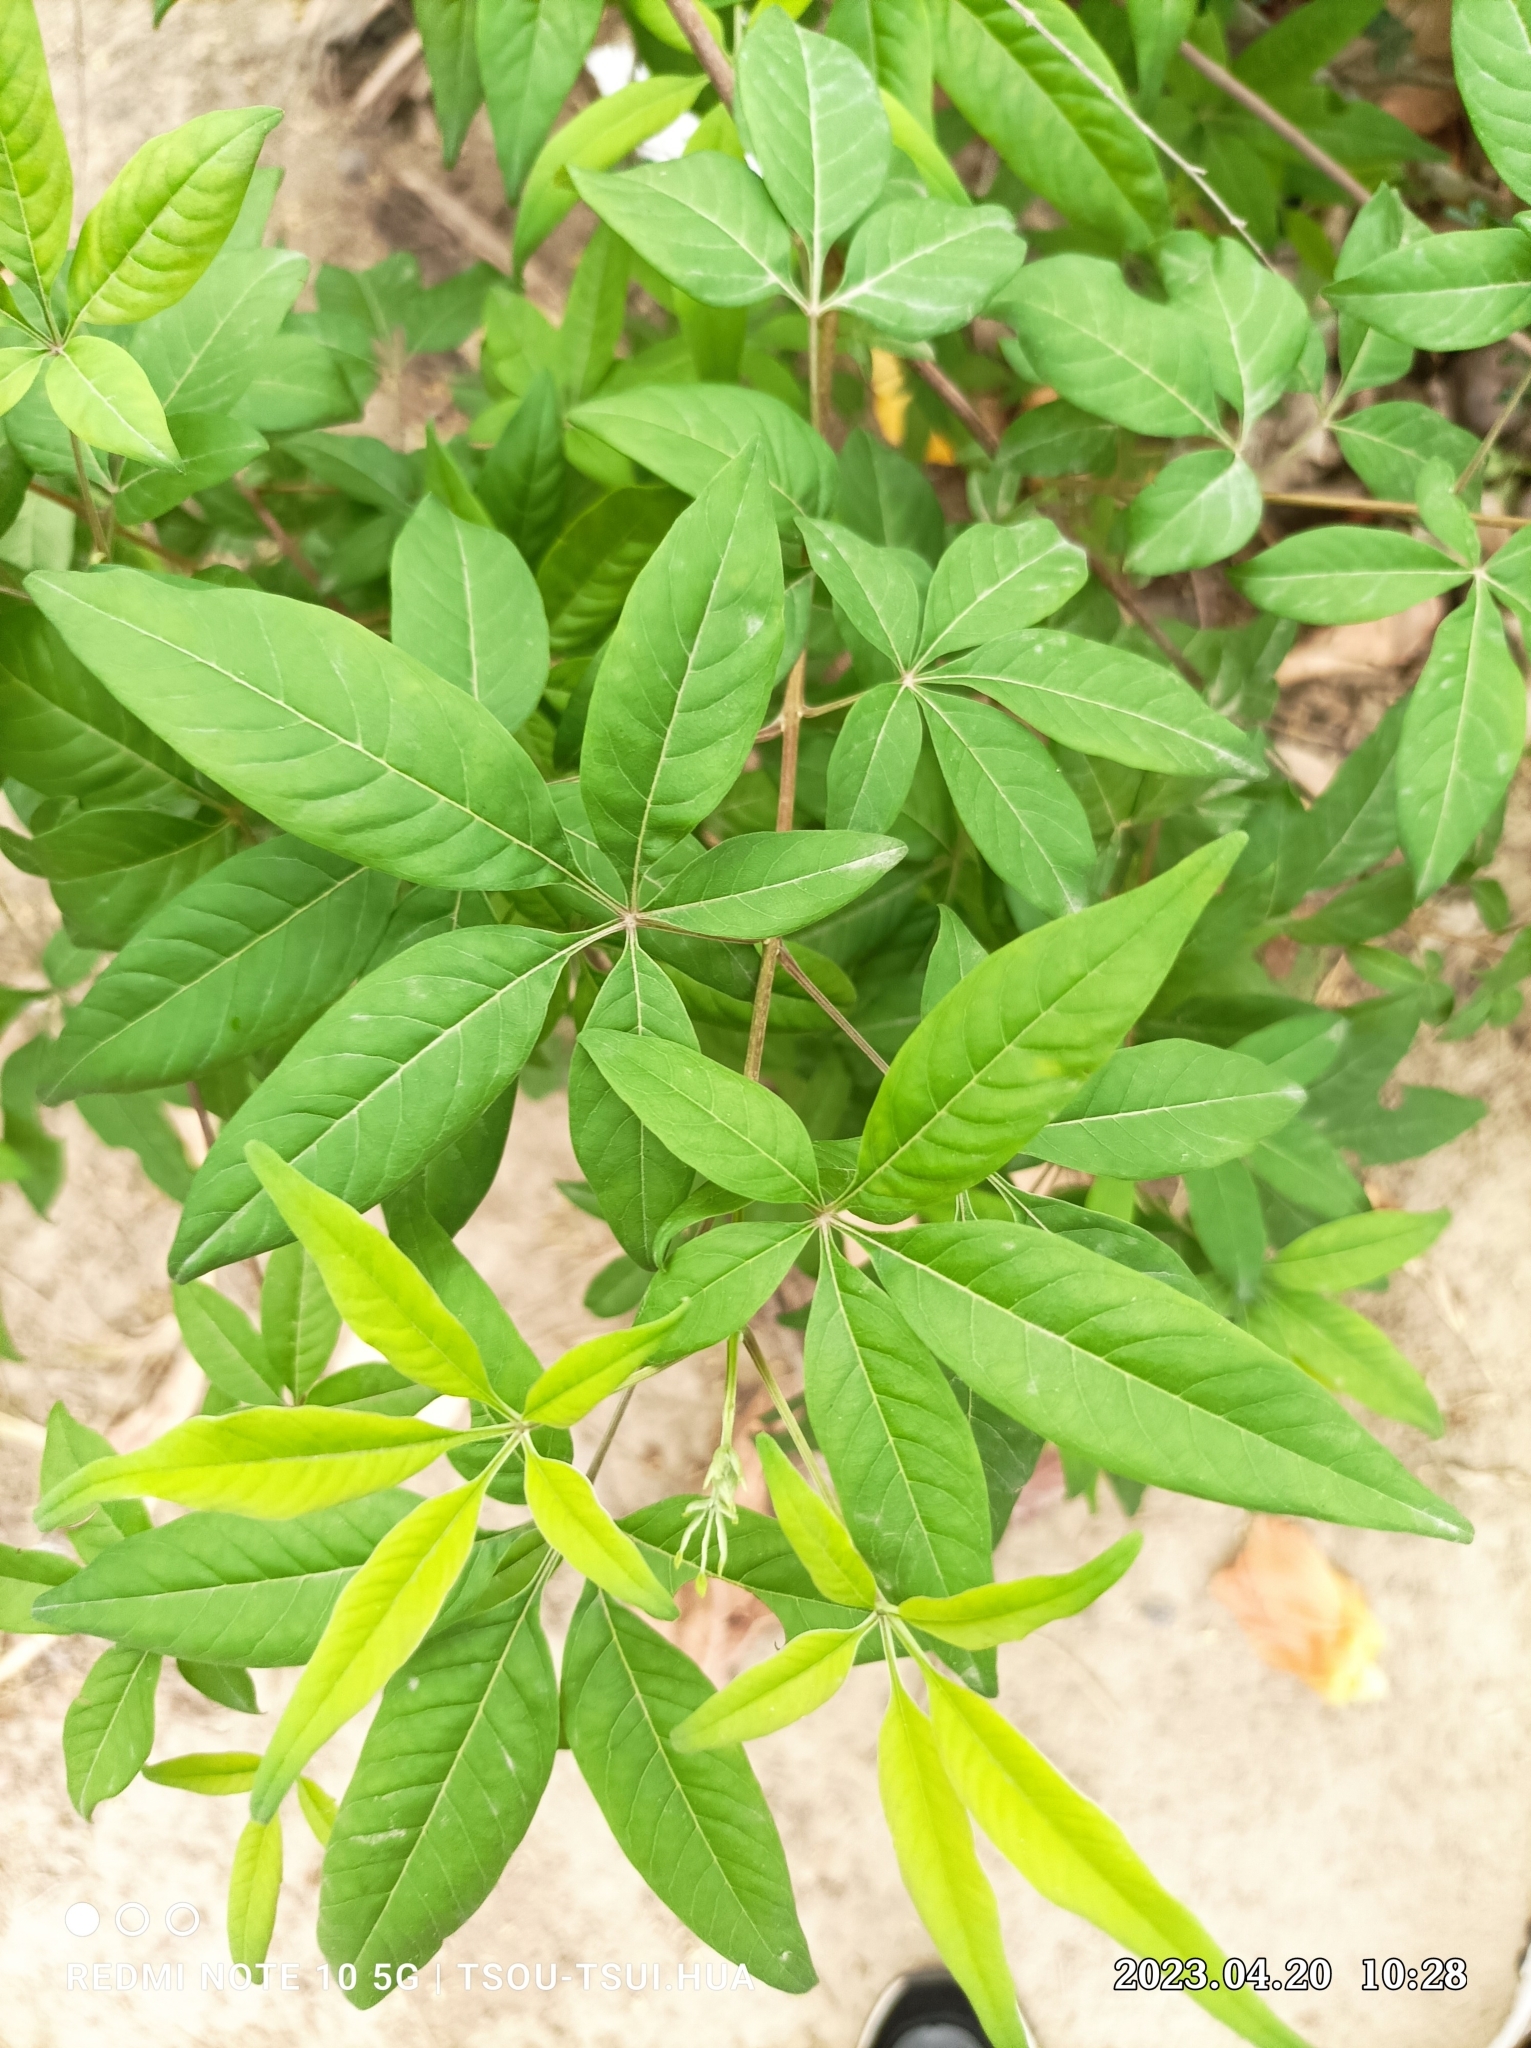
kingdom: Plantae
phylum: Tracheophyta
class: Magnoliopsida
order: Lamiales
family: Lamiaceae
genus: Vitex
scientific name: Vitex negundo
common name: Chinese chastetree
